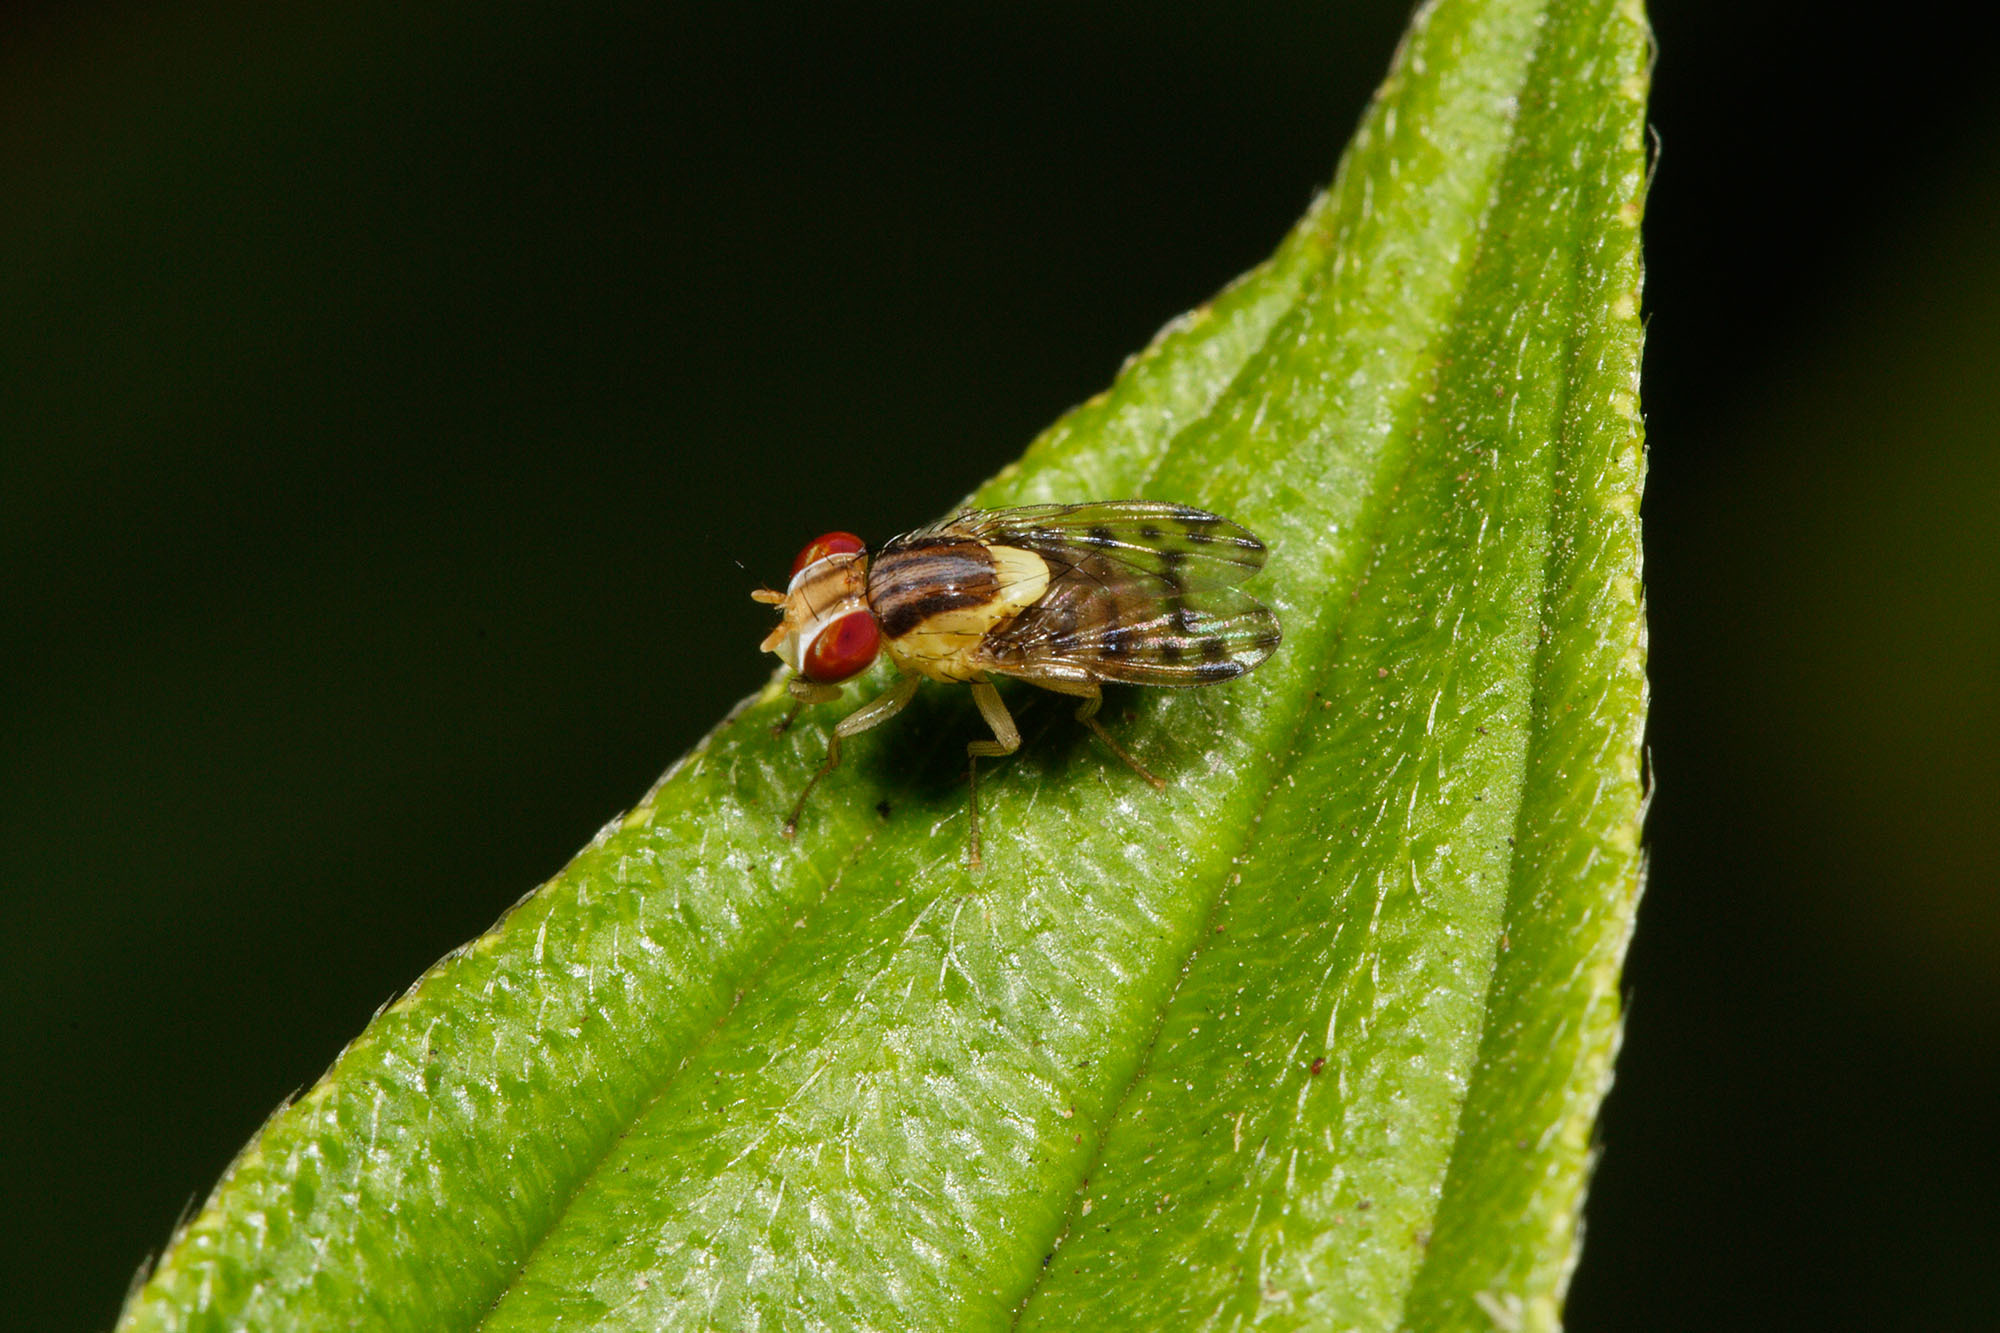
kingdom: Animalia
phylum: Arthropoda
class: Insecta
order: Diptera
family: Lauxaniidae
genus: Wawu
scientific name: Wawu queenslandensis
